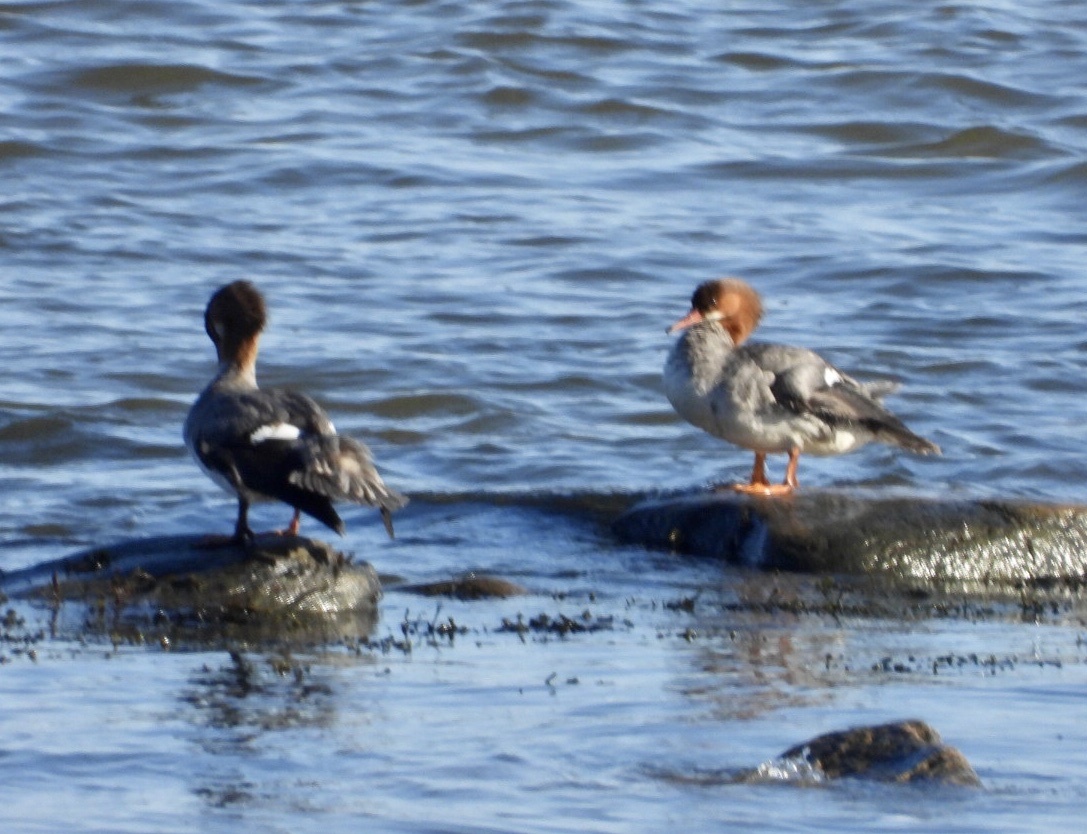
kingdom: Animalia
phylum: Chordata
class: Aves
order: Anseriformes
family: Anatidae
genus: Mergus
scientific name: Mergus merganser
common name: Common merganser
